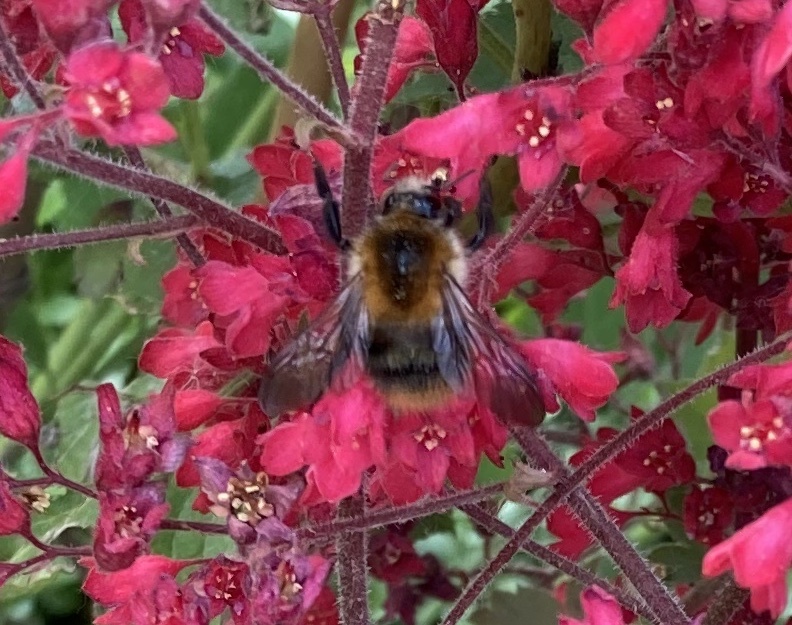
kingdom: Animalia
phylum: Arthropoda
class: Insecta
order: Hymenoptera
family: Apidae
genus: Bombus
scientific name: Bombus pascuorum
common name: Common carder bee
